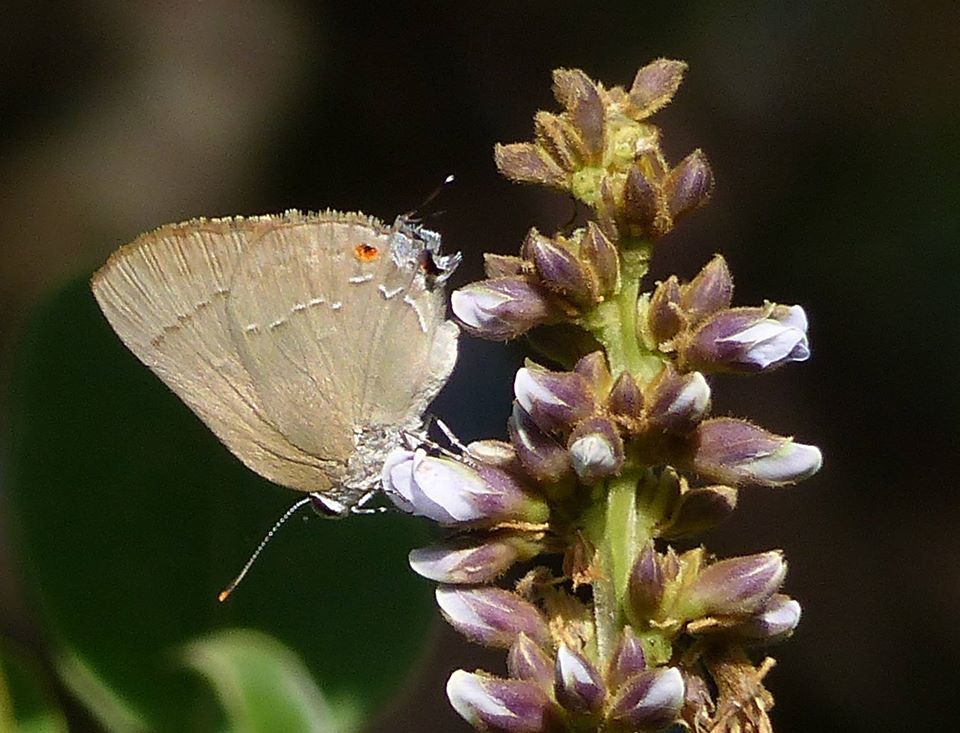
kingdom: Animalia
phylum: Arthropoda
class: Insecta
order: Lepidoptera
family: Lycaenidae
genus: Thecla
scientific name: Thecla strophius
